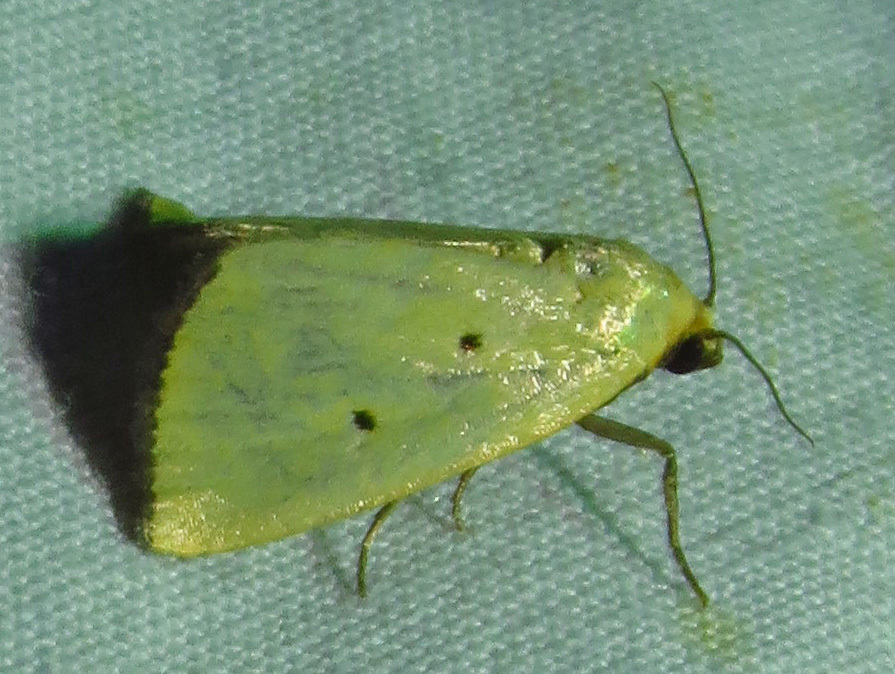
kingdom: Animalia
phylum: Arthropoda
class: Insecta
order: Lepidoptera
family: Noctuidae
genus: Marimatha
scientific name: Marimatha nigrofimbria
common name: Black-bordered lemon moth
